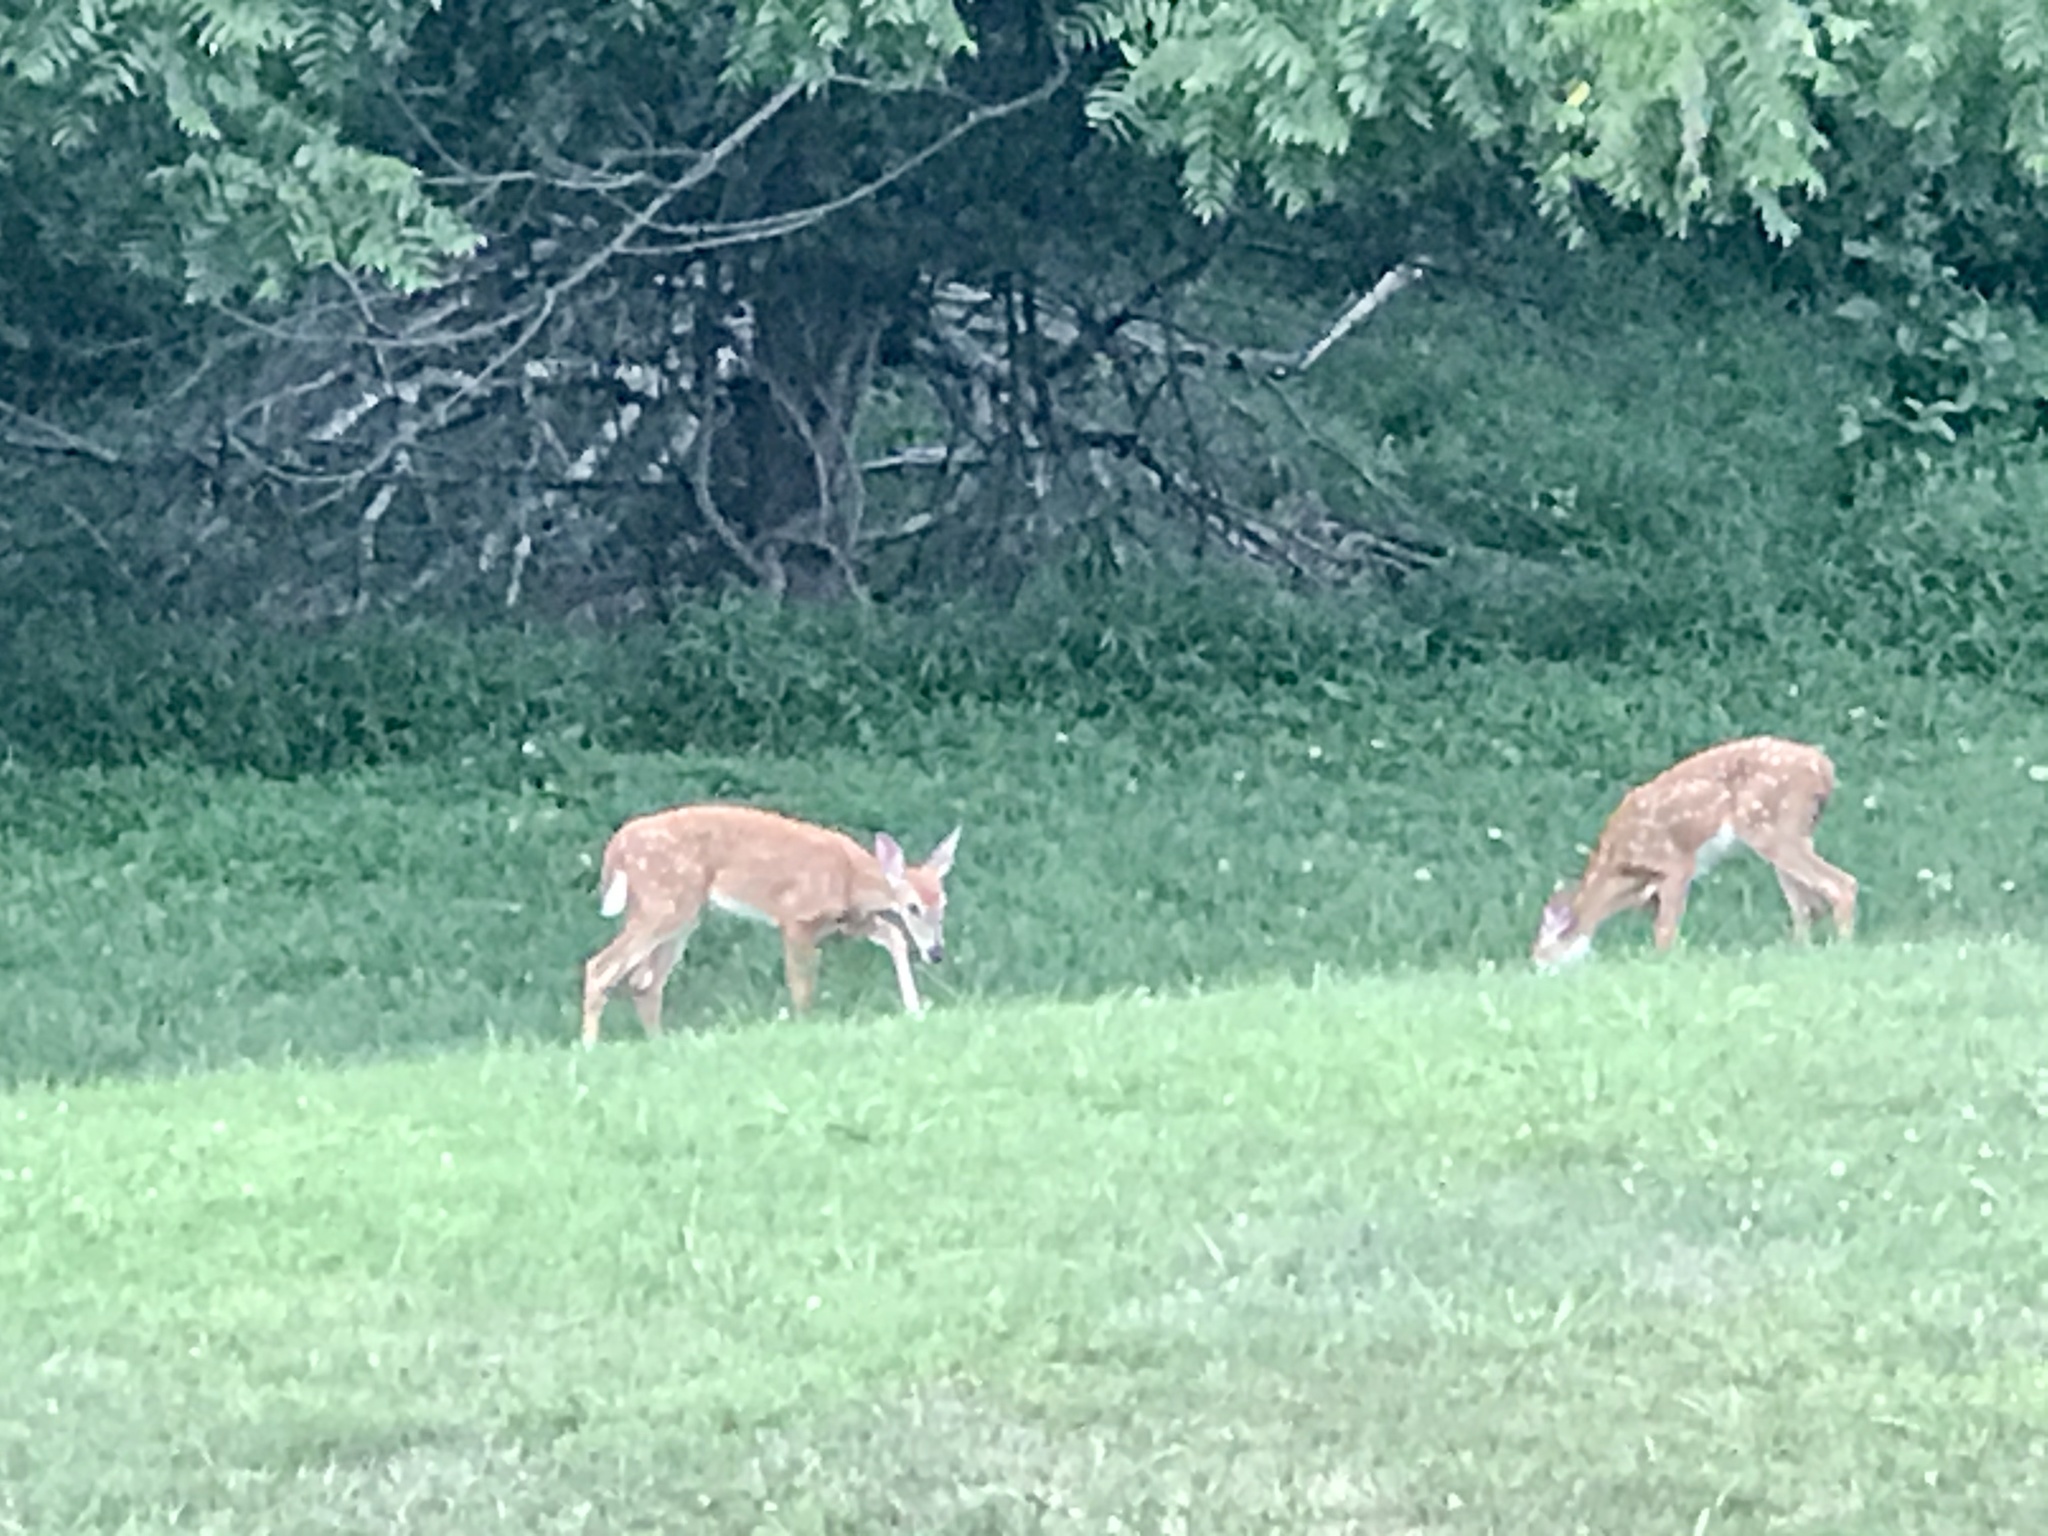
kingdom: Animalia
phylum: Chordata
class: Mammalia
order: Artiodactyla
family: Cervidae
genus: Odocoileus
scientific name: Odocoileus virginianus
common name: White-tailed deer
